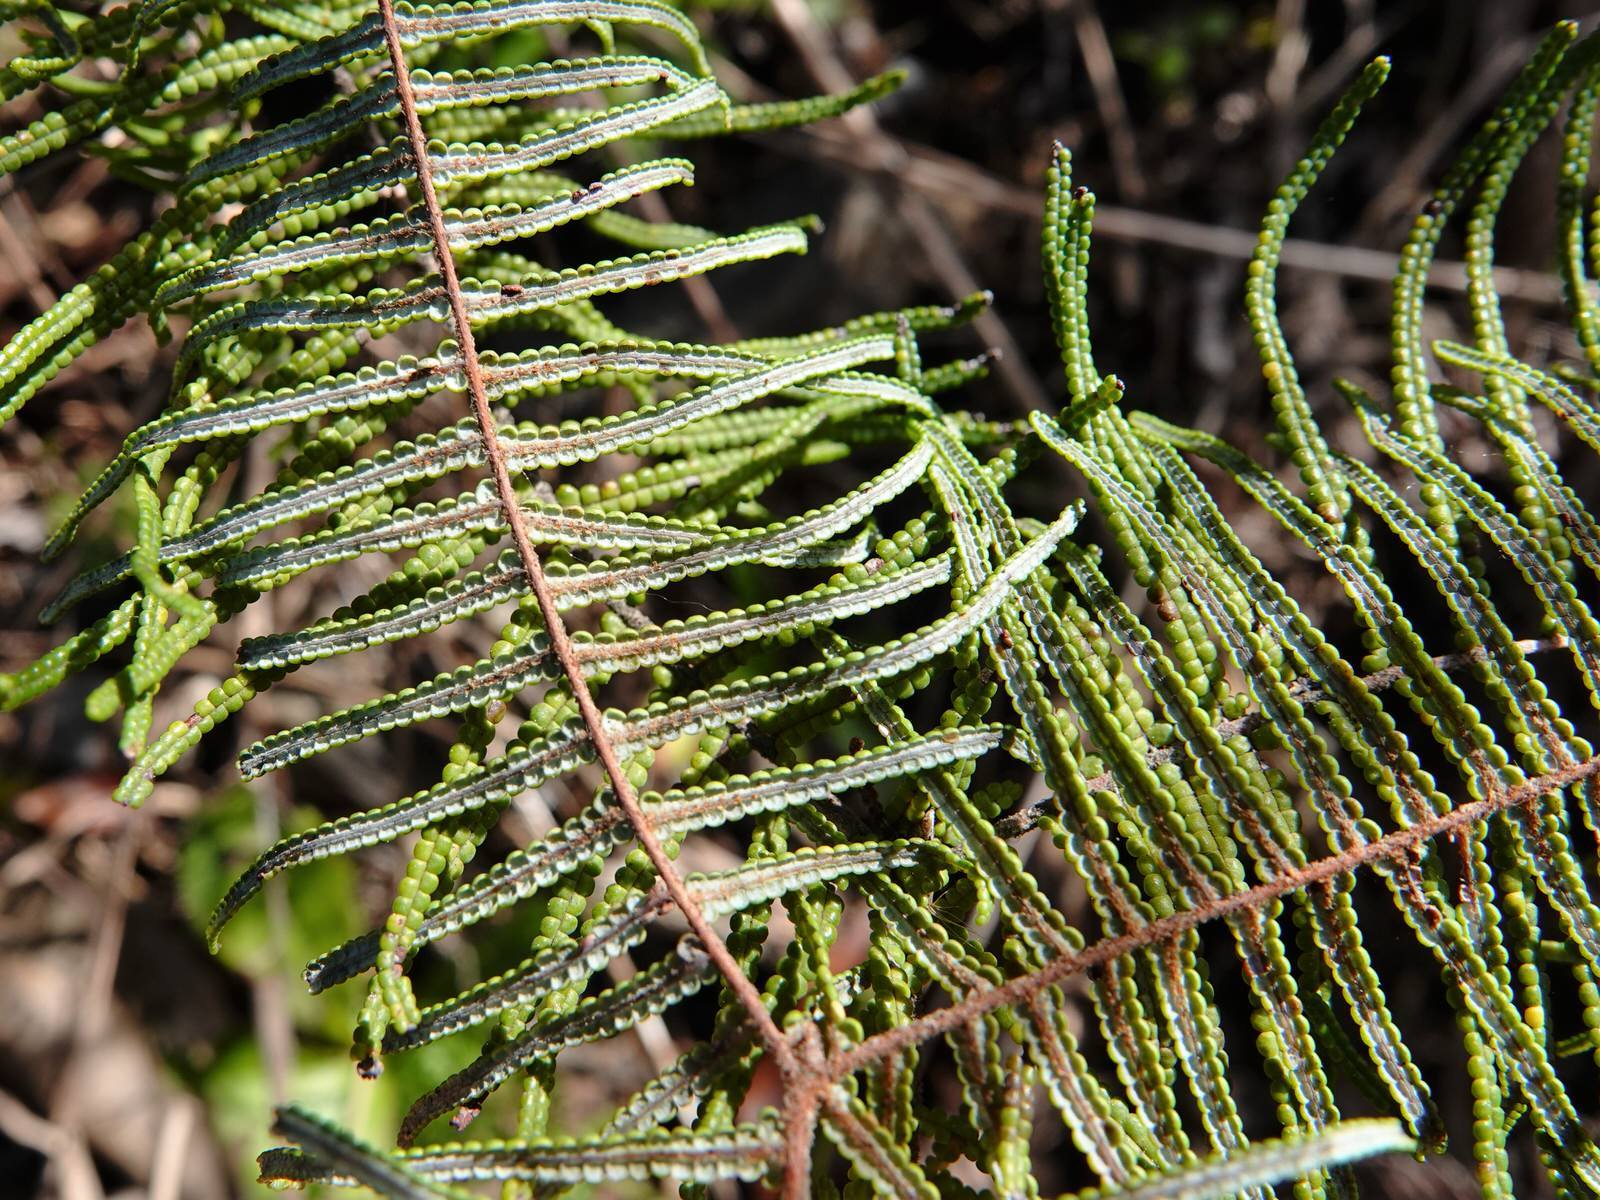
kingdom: Plantae
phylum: Tracheophyta
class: Polypodiopsida
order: Gleicheniales
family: Gleicheniaceae
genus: Gleichenia
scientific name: Gleichenia dicarpa
